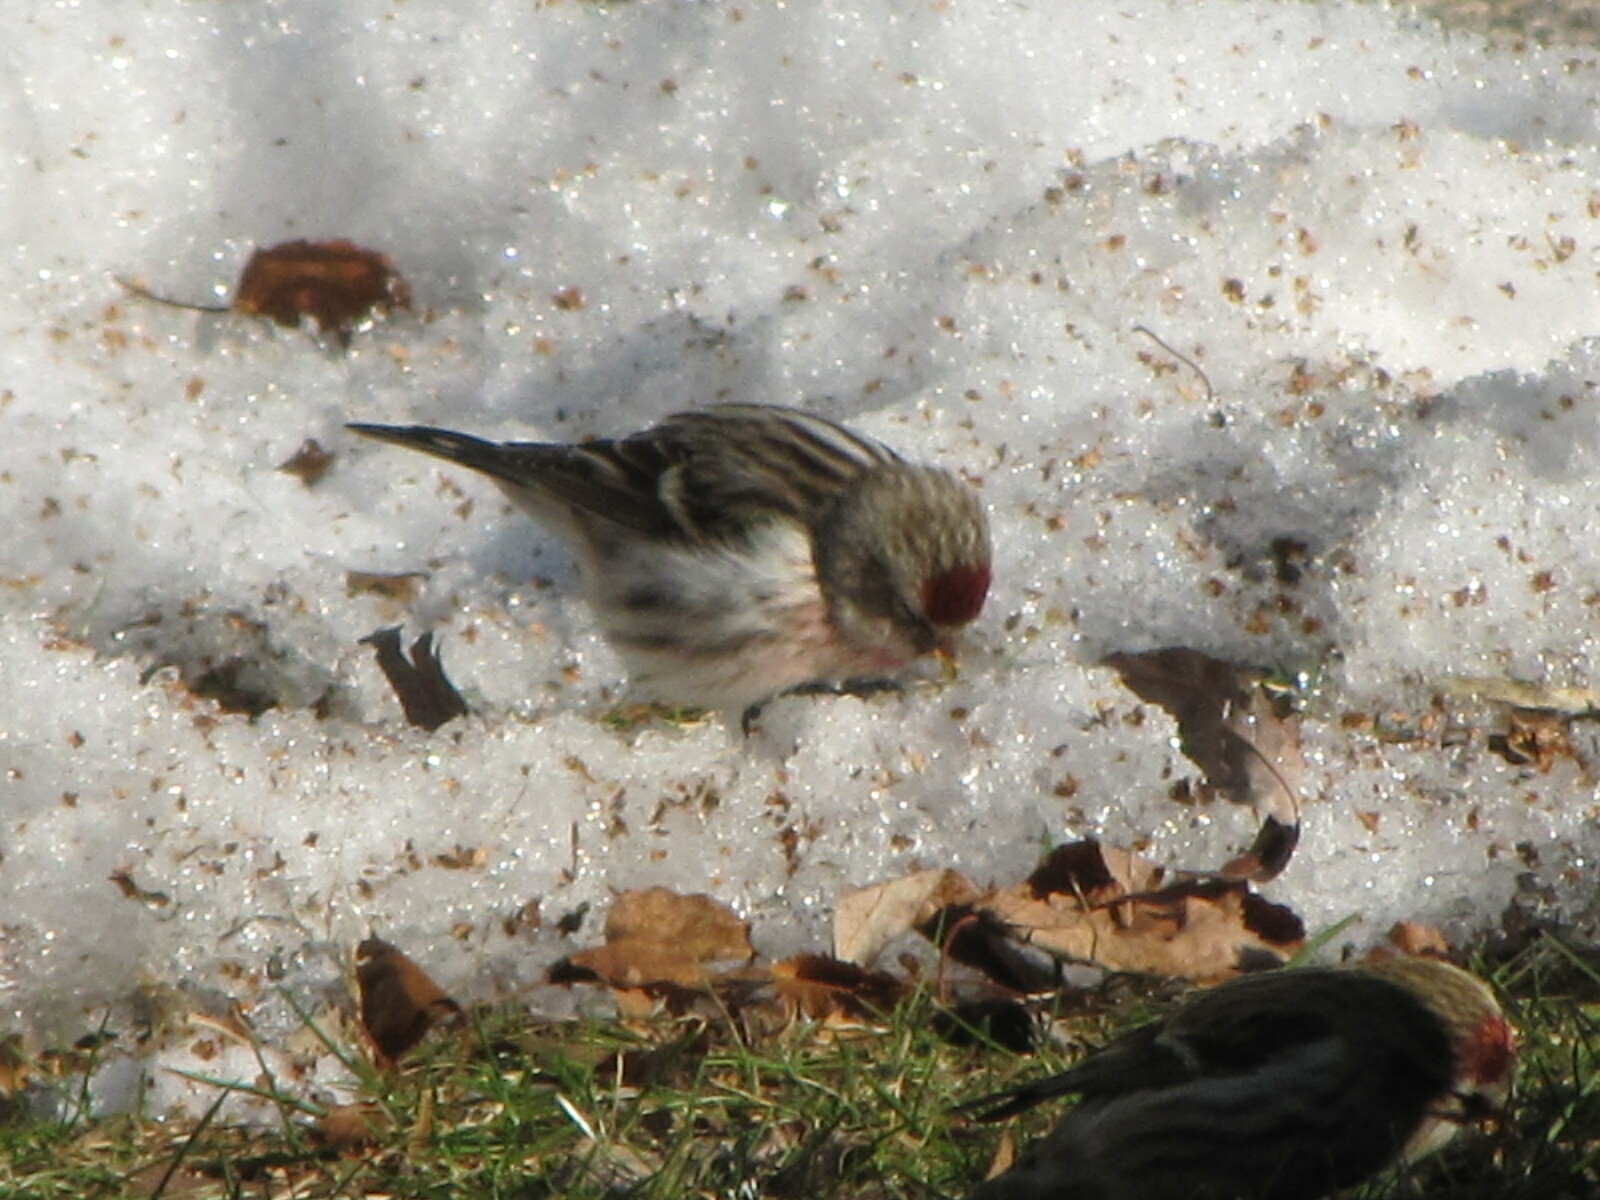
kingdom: Animalia
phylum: Chordata
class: Aves
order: Passeriformes
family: Fringillidae
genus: Acanthis
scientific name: Acanthis flammea
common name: Common redpoll
